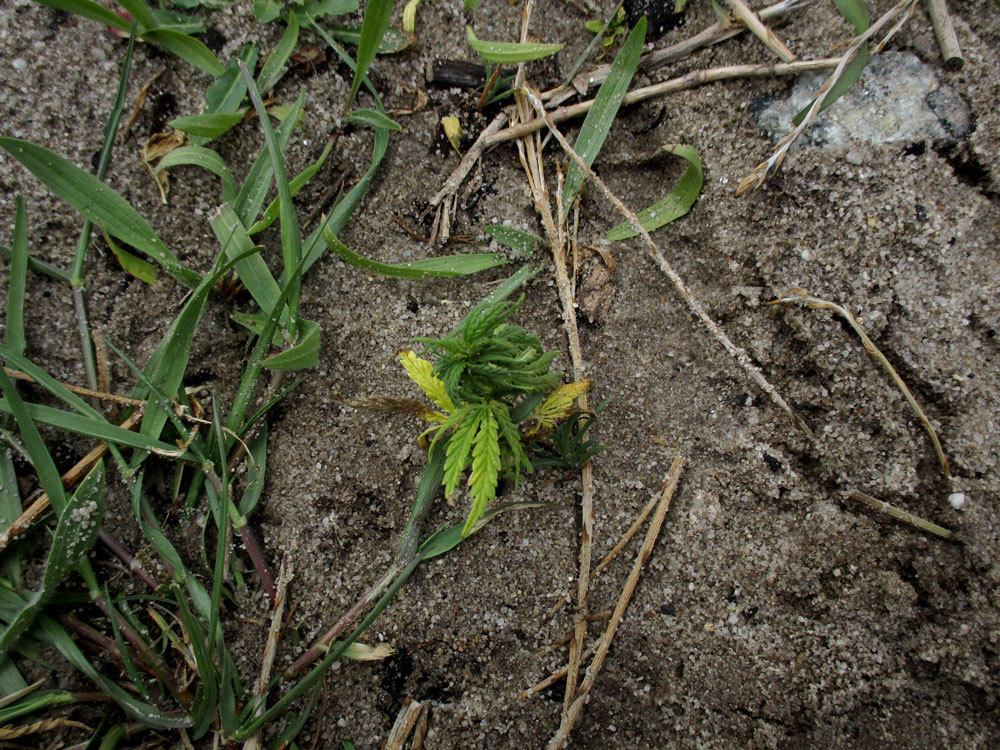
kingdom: Plantae
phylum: Tracheophyta
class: Magnoliopsida
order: Rosales
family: Cannabaceae
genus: Cannabis
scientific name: Cannabis sativa
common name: Hemp
